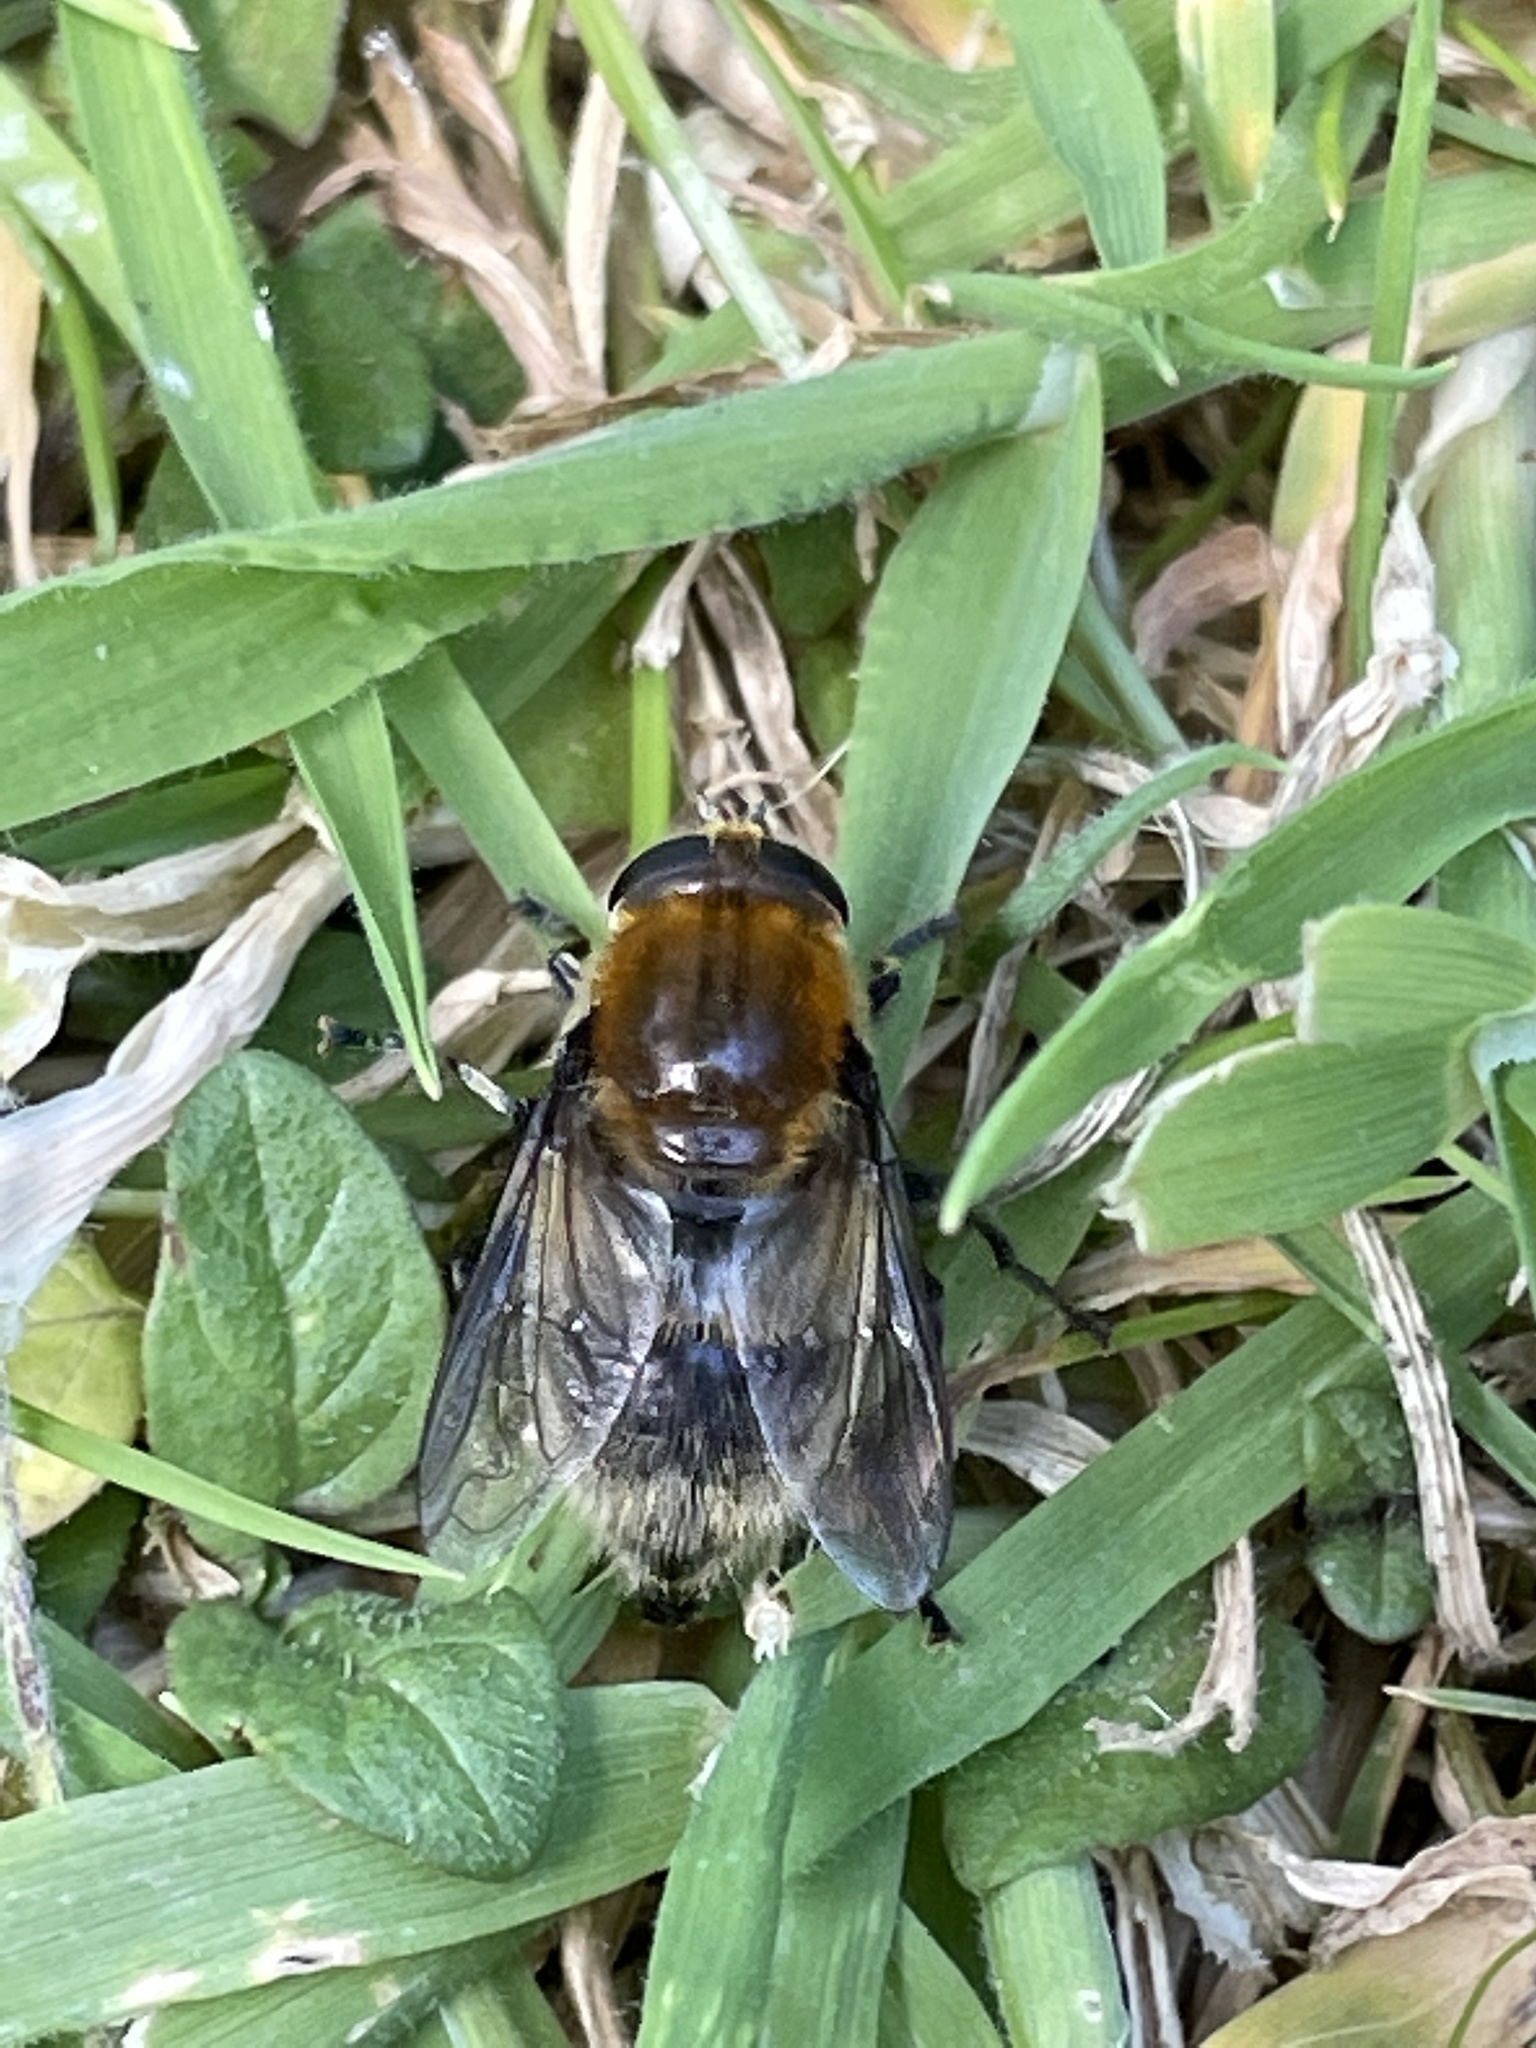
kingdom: Animalia
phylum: Arthropoda
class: Insecta
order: Diptera
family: Syrphidae
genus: Merodon
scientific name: Merodon equestris
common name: Greater bulb-fly
